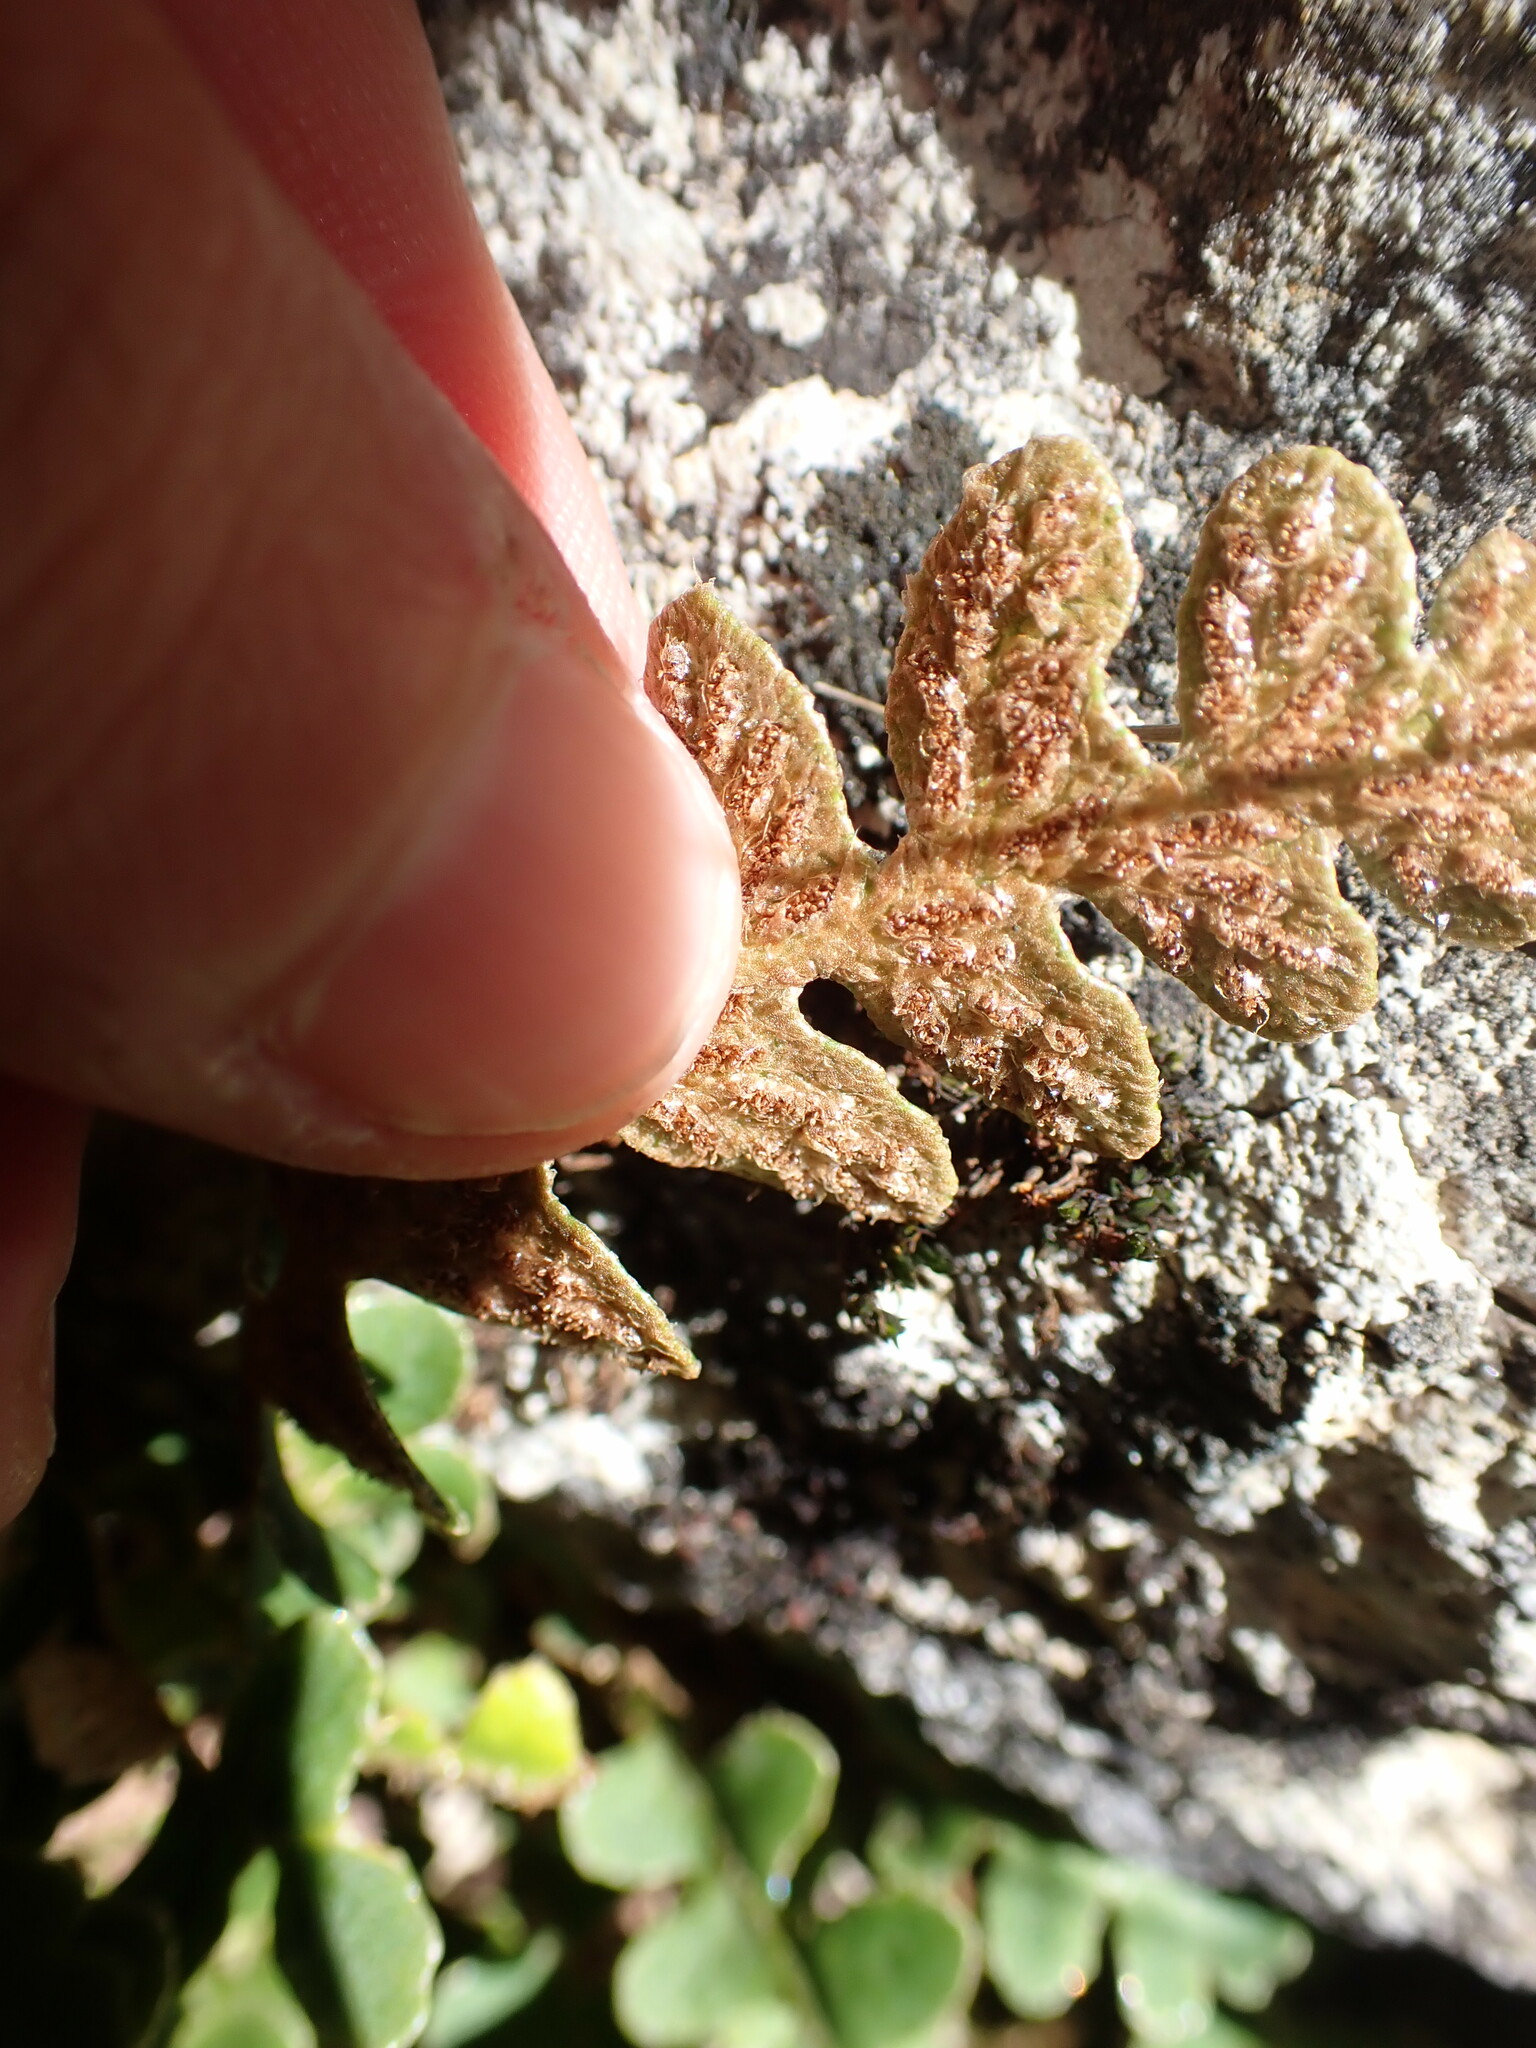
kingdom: Plantae
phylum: Tracheophyta
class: Polypodiopsida
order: Polypodiales
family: Aspleniaceae
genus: Asplenium
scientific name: Asplenium ceterach
